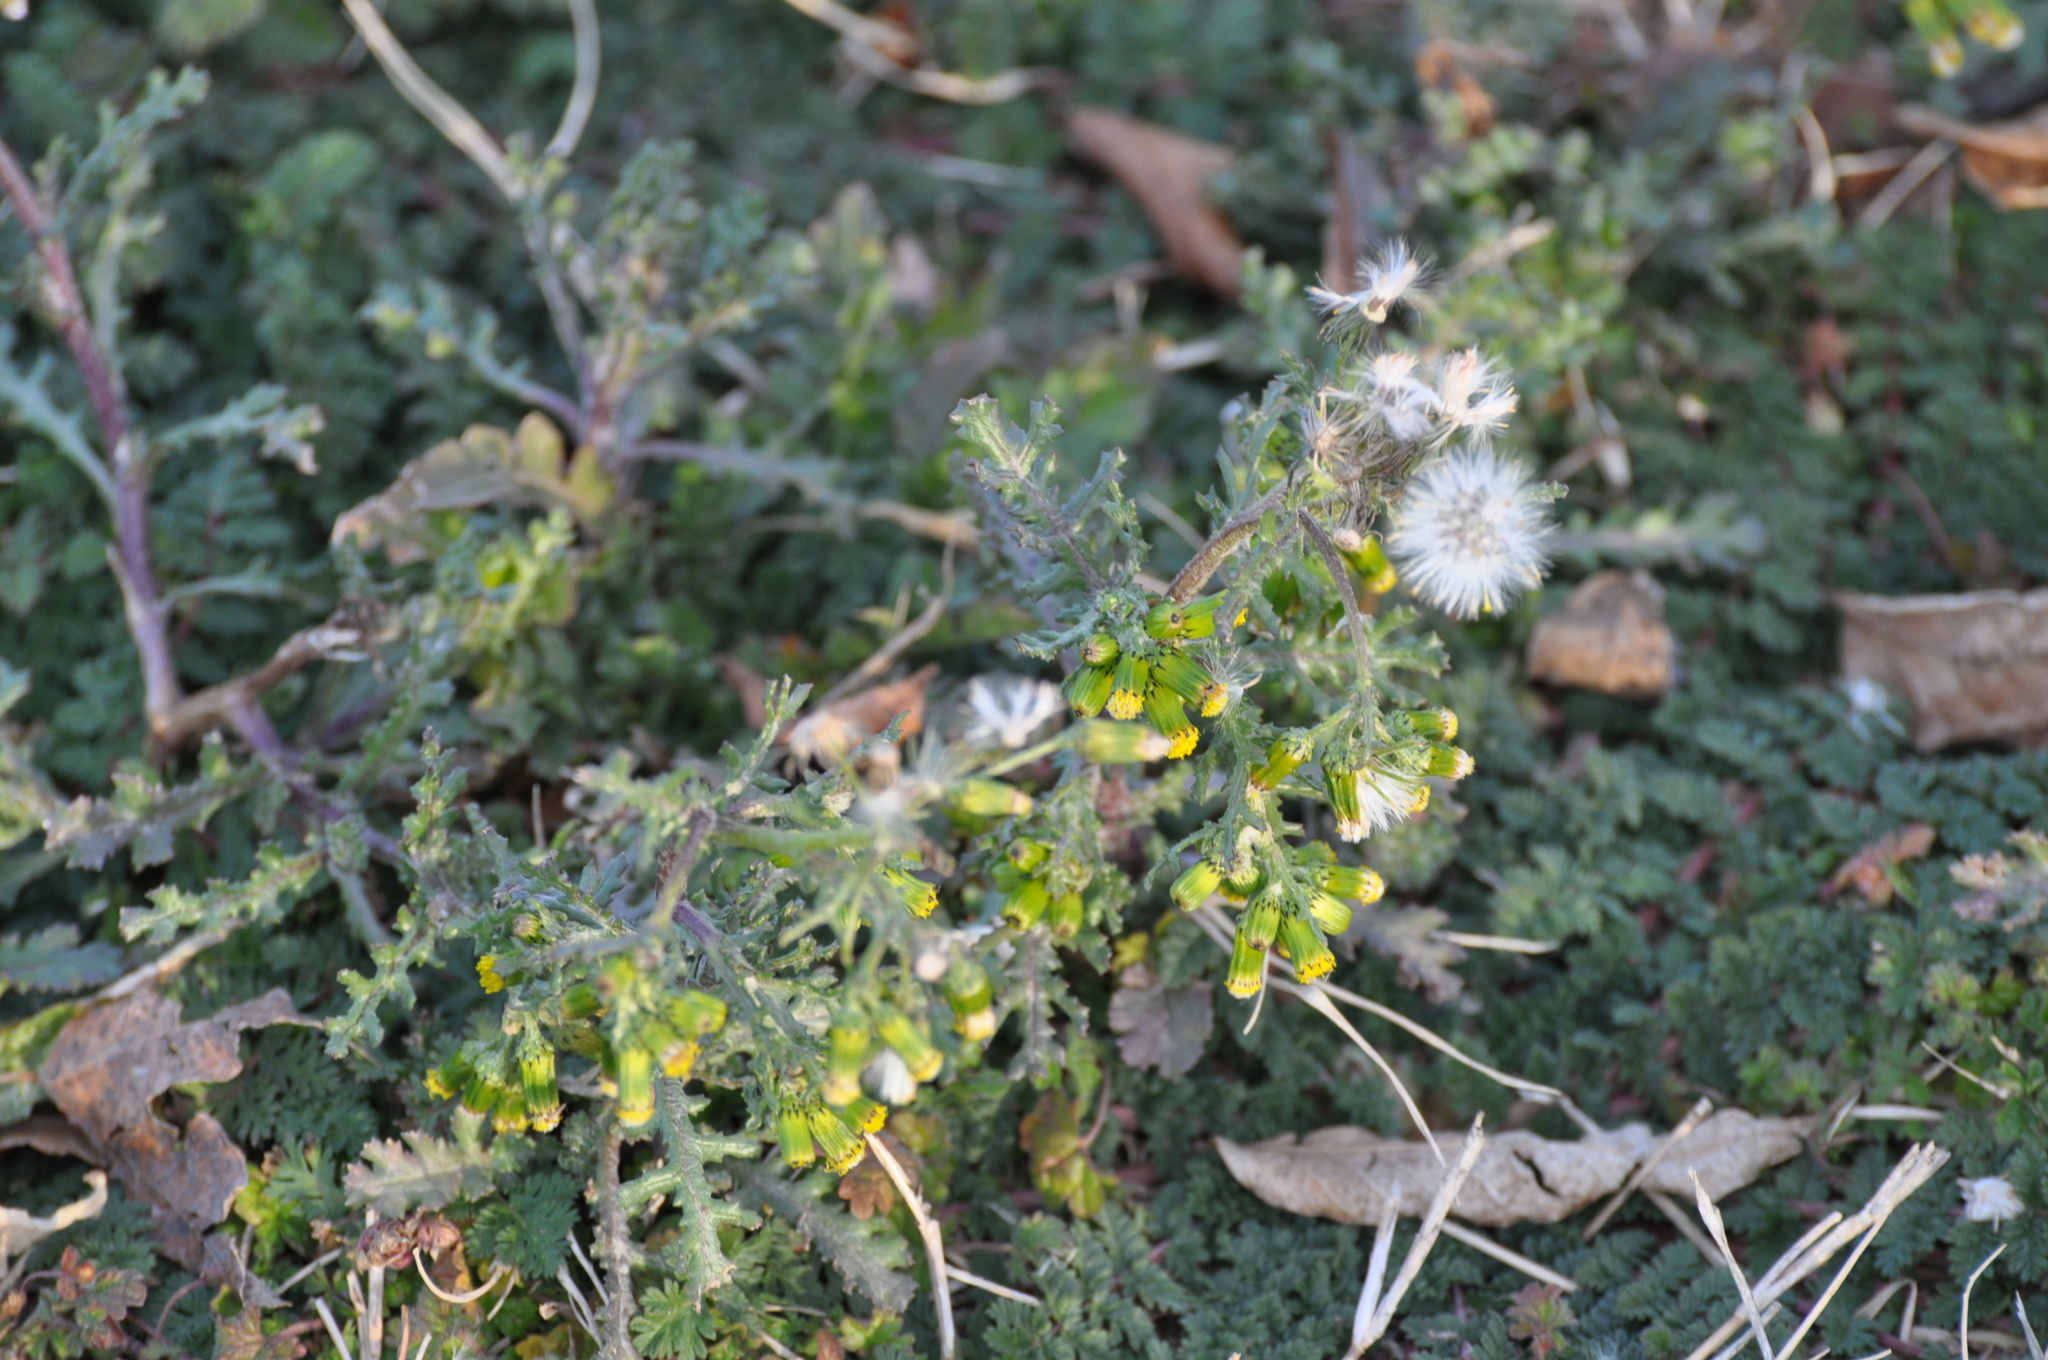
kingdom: Plantae
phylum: Tracheophyta
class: Magnoliopsida
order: Asterales
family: Asteraceae
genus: Senecio
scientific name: Senecio vulgaris
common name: Old-man-in-the-spring
